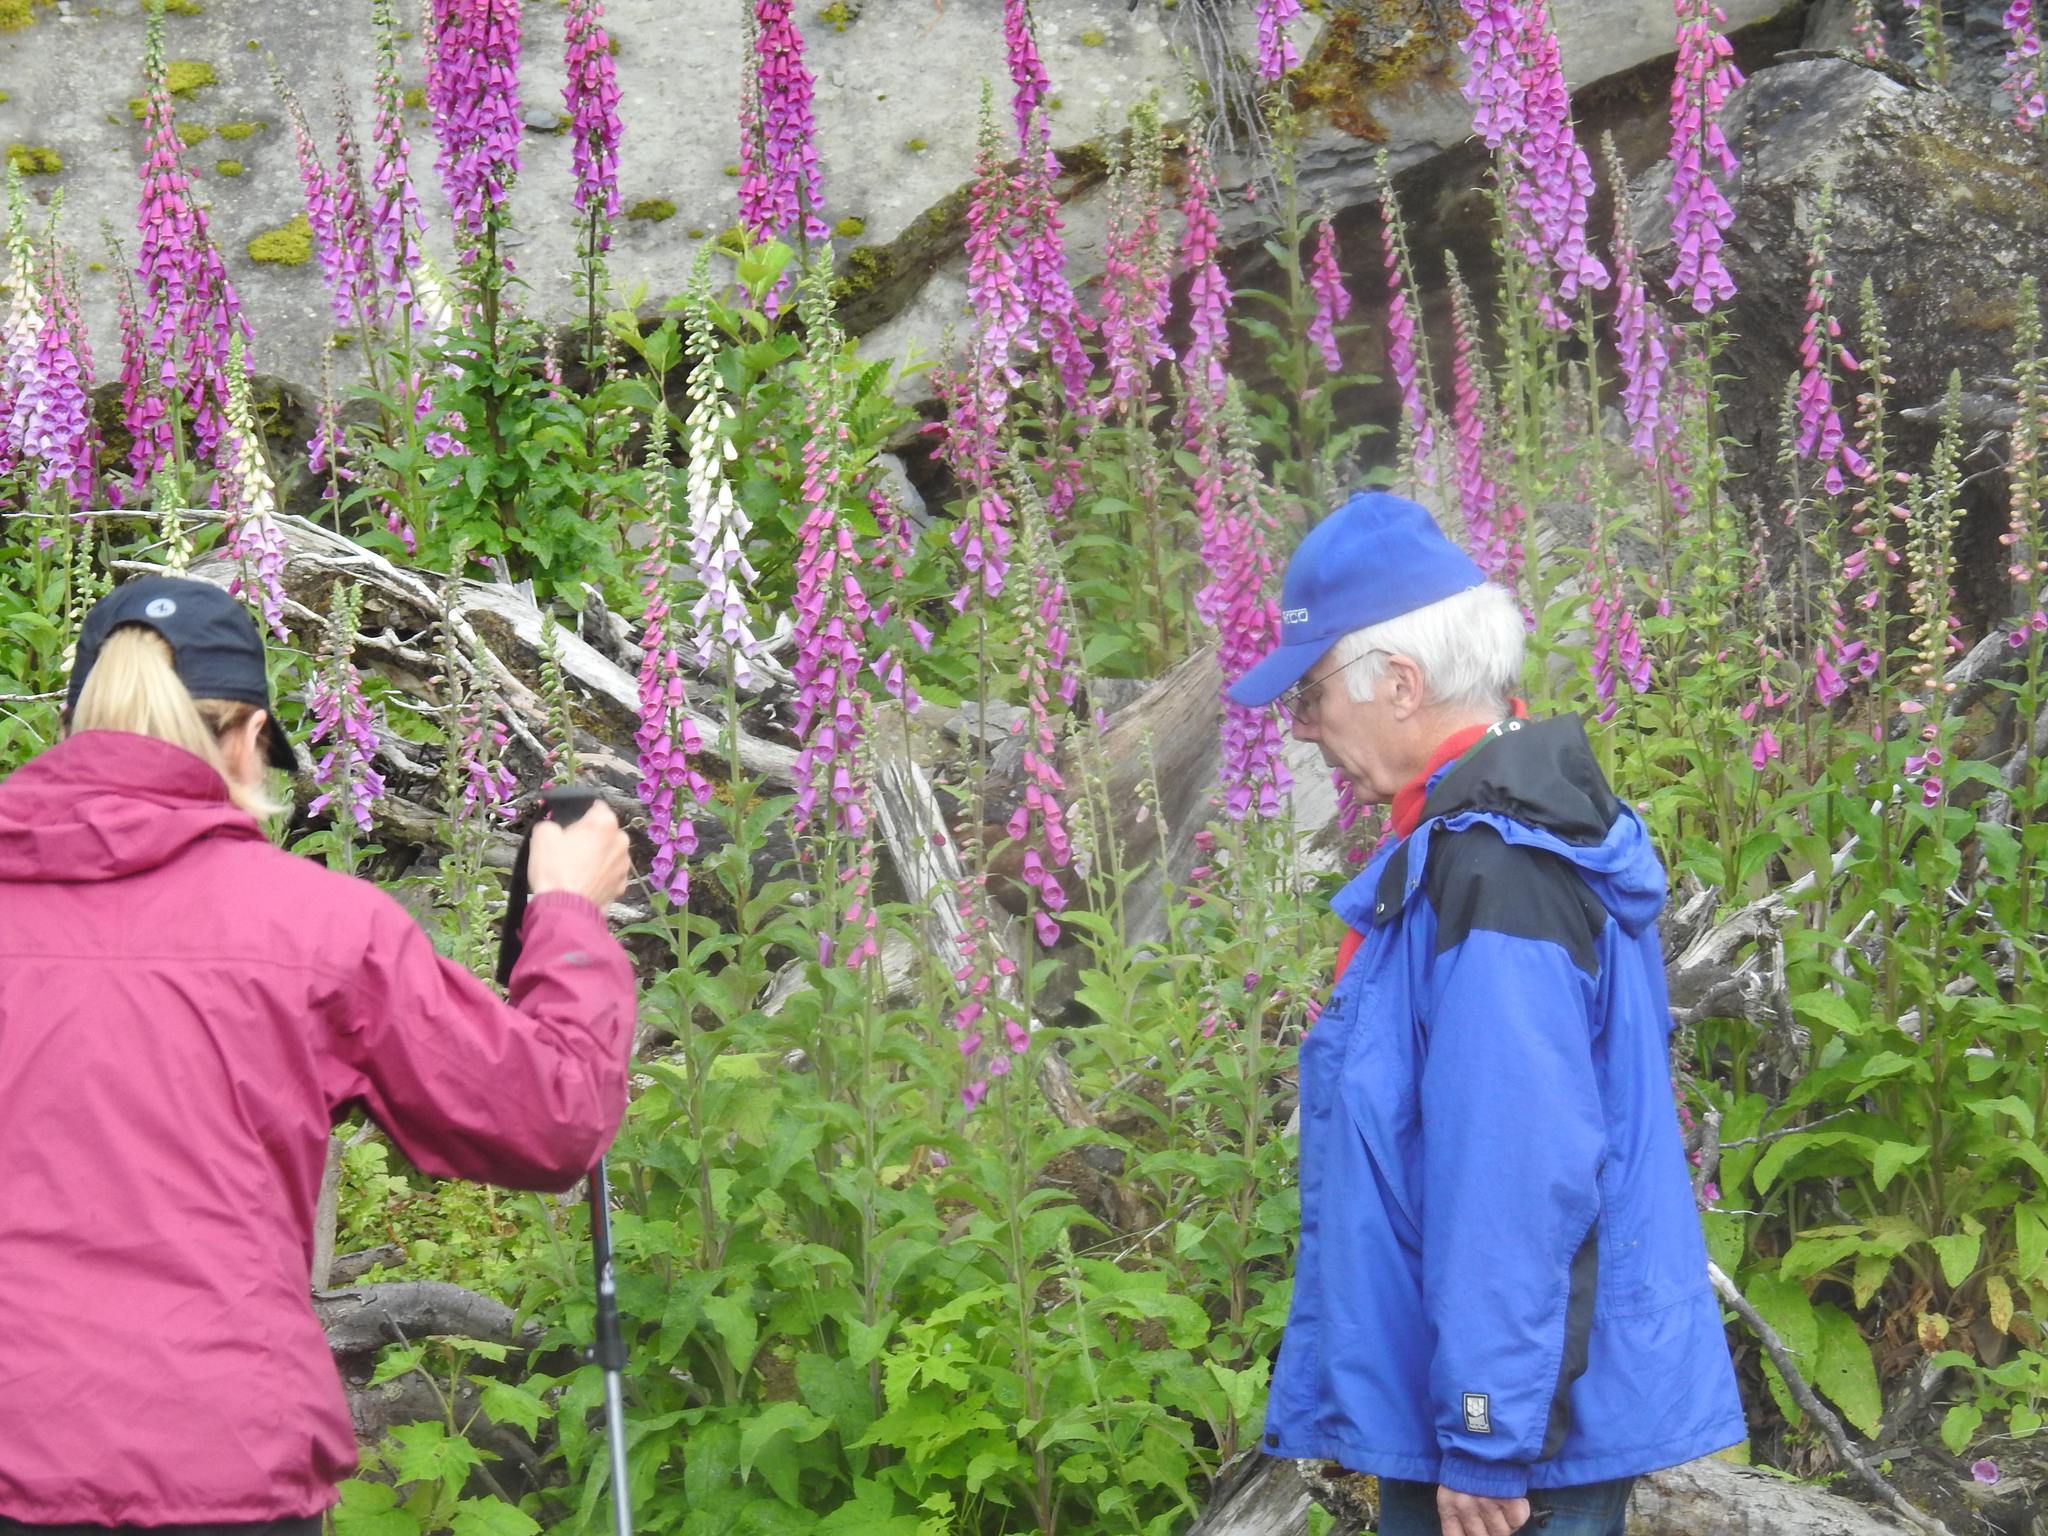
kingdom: Plantae
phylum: Tracheophyta
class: Magnoliopsida
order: Lamiales
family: Plantaginaceae
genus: Digitalis
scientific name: Digitalis purpurea
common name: Foxglove
